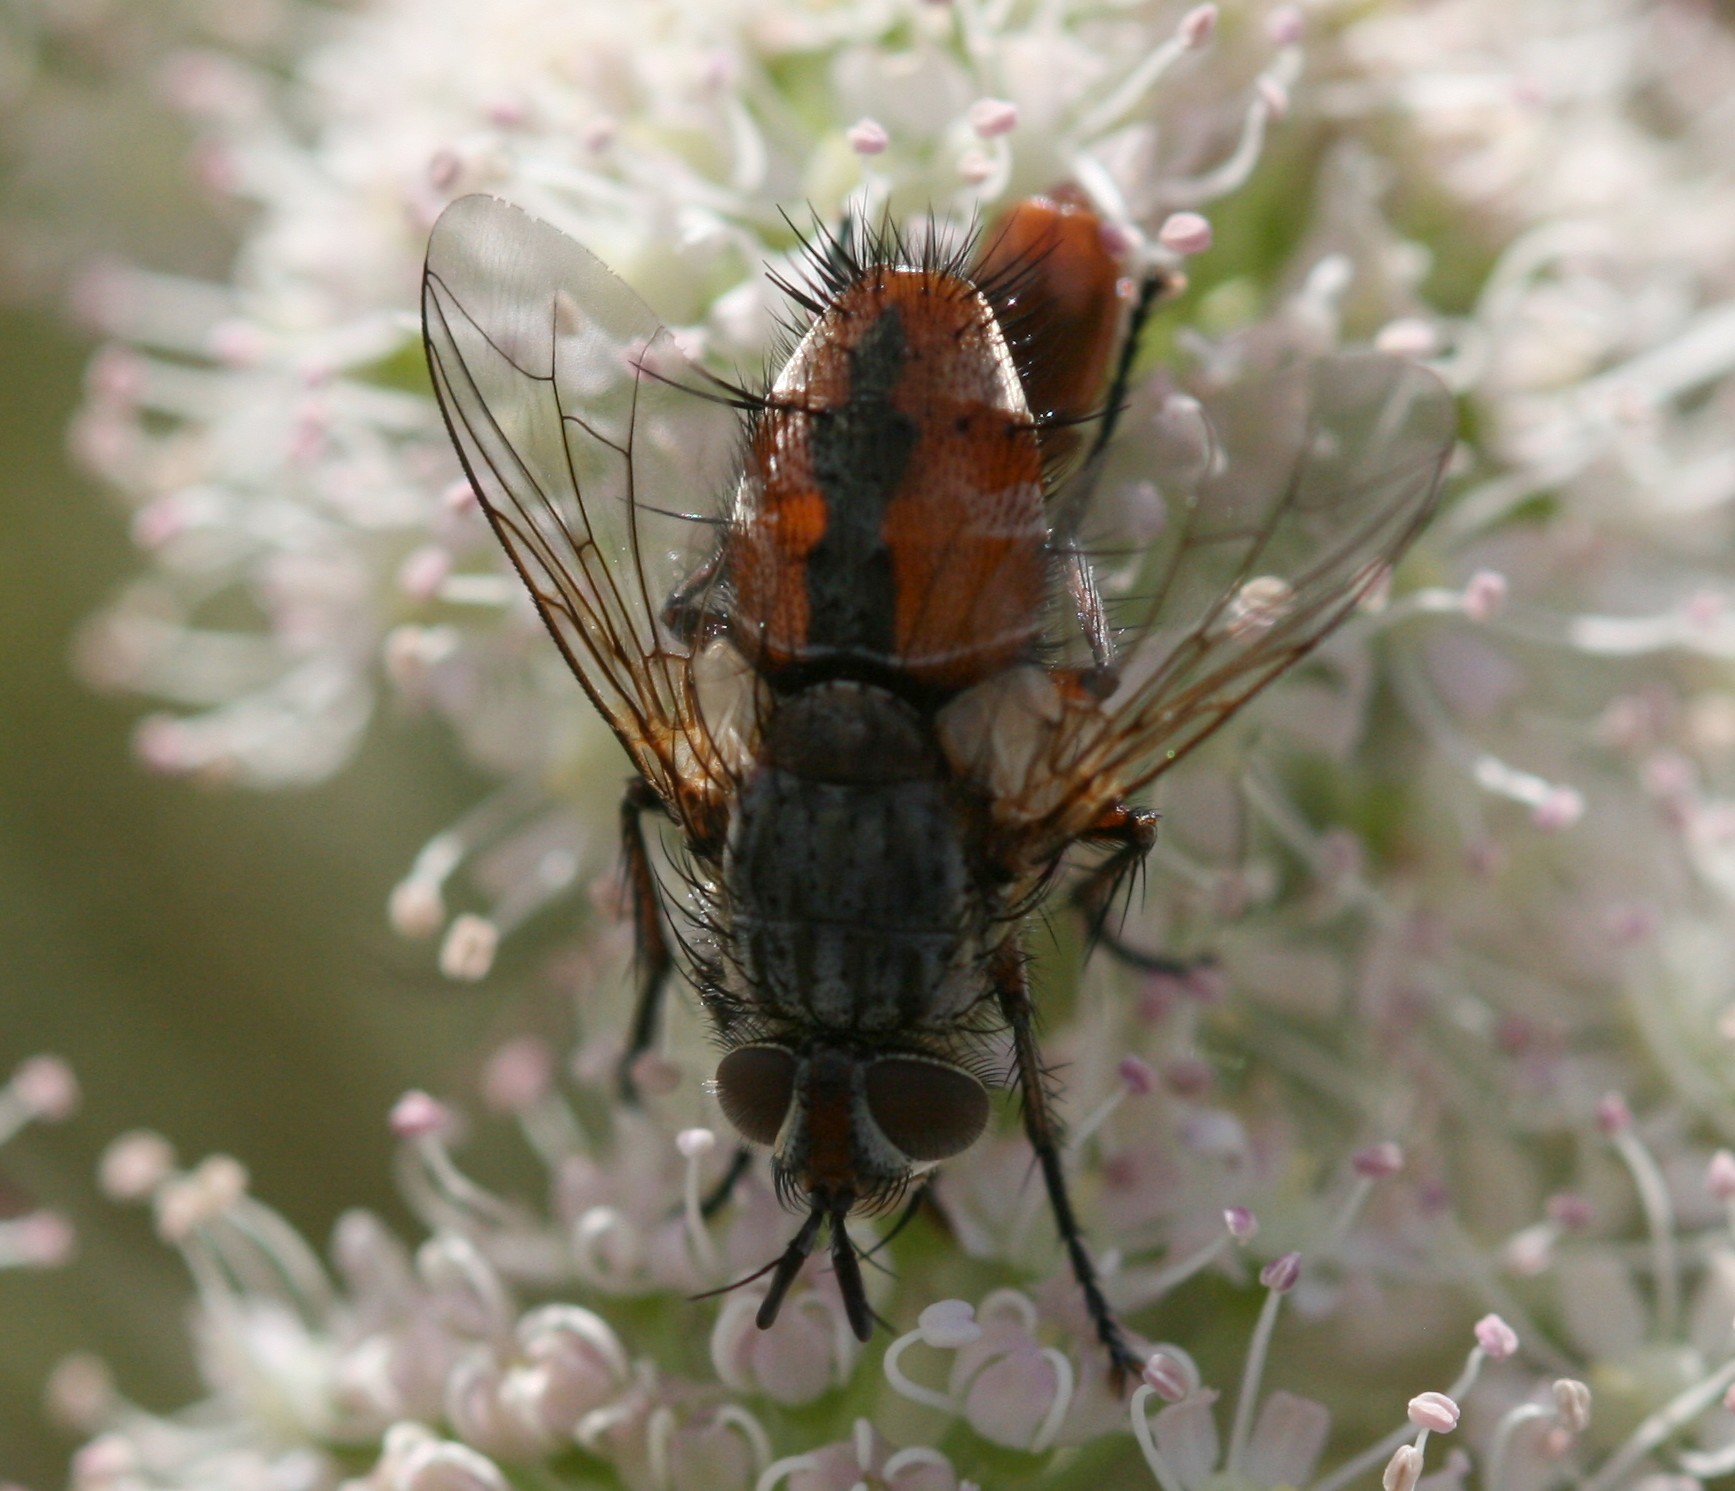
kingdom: Animalia
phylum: Arthropoda
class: Insecta
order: Diptera
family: Tachinidae
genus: Linnaemya
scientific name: Linnaemya vulpina
